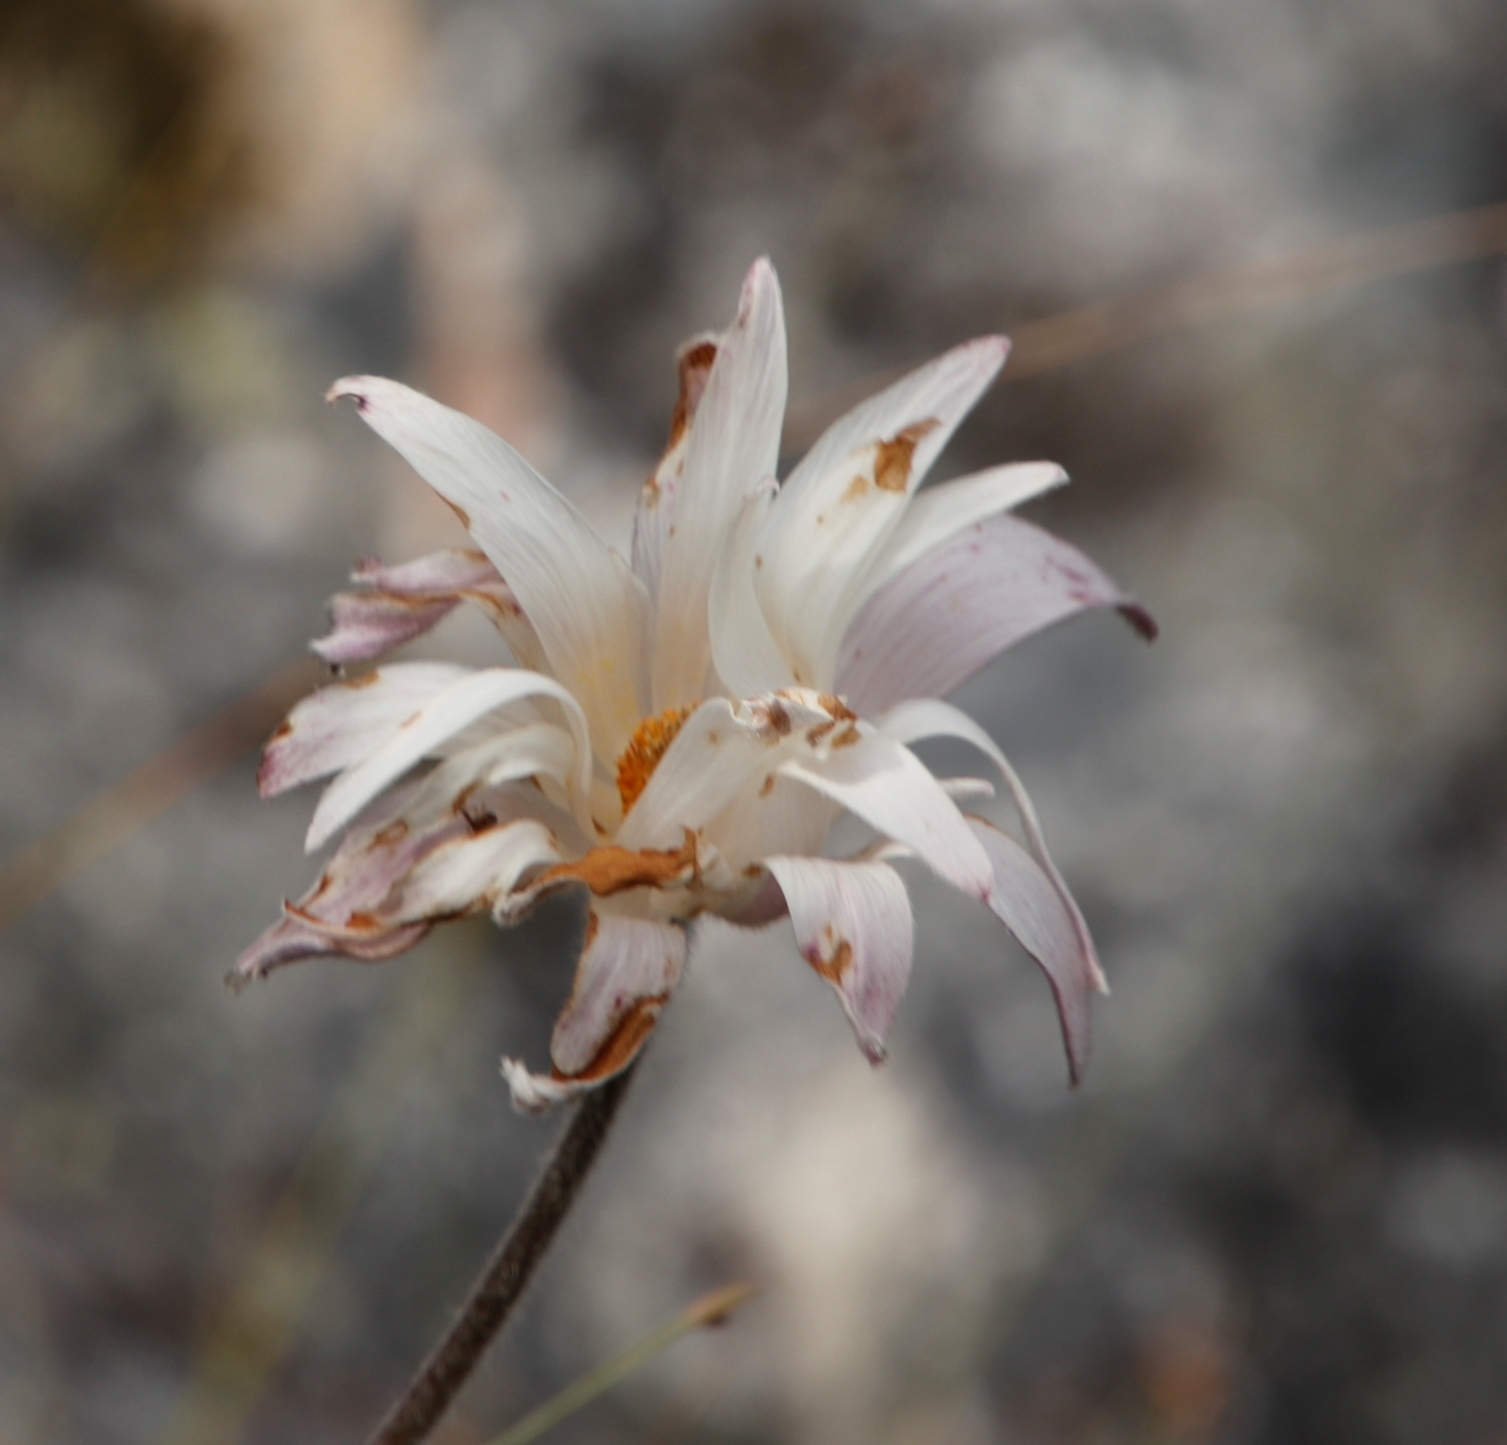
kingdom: Plantae
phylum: Tracheophyta
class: Magnoliopsida
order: Ranunculales
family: Ranunculaceae
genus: Knowltonia
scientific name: Knowltonia tenuifolia
